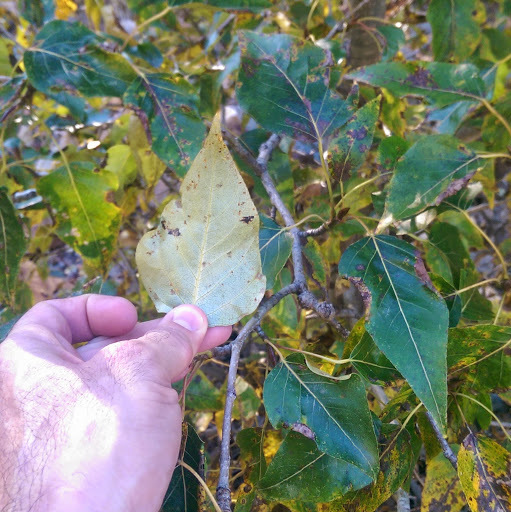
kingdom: Plantae
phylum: Tracheophyta
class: Magnoliopsida
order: Malpighiales
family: Salicaceae
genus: Populus
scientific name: Populus trichocarpa
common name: Black cottonwood
